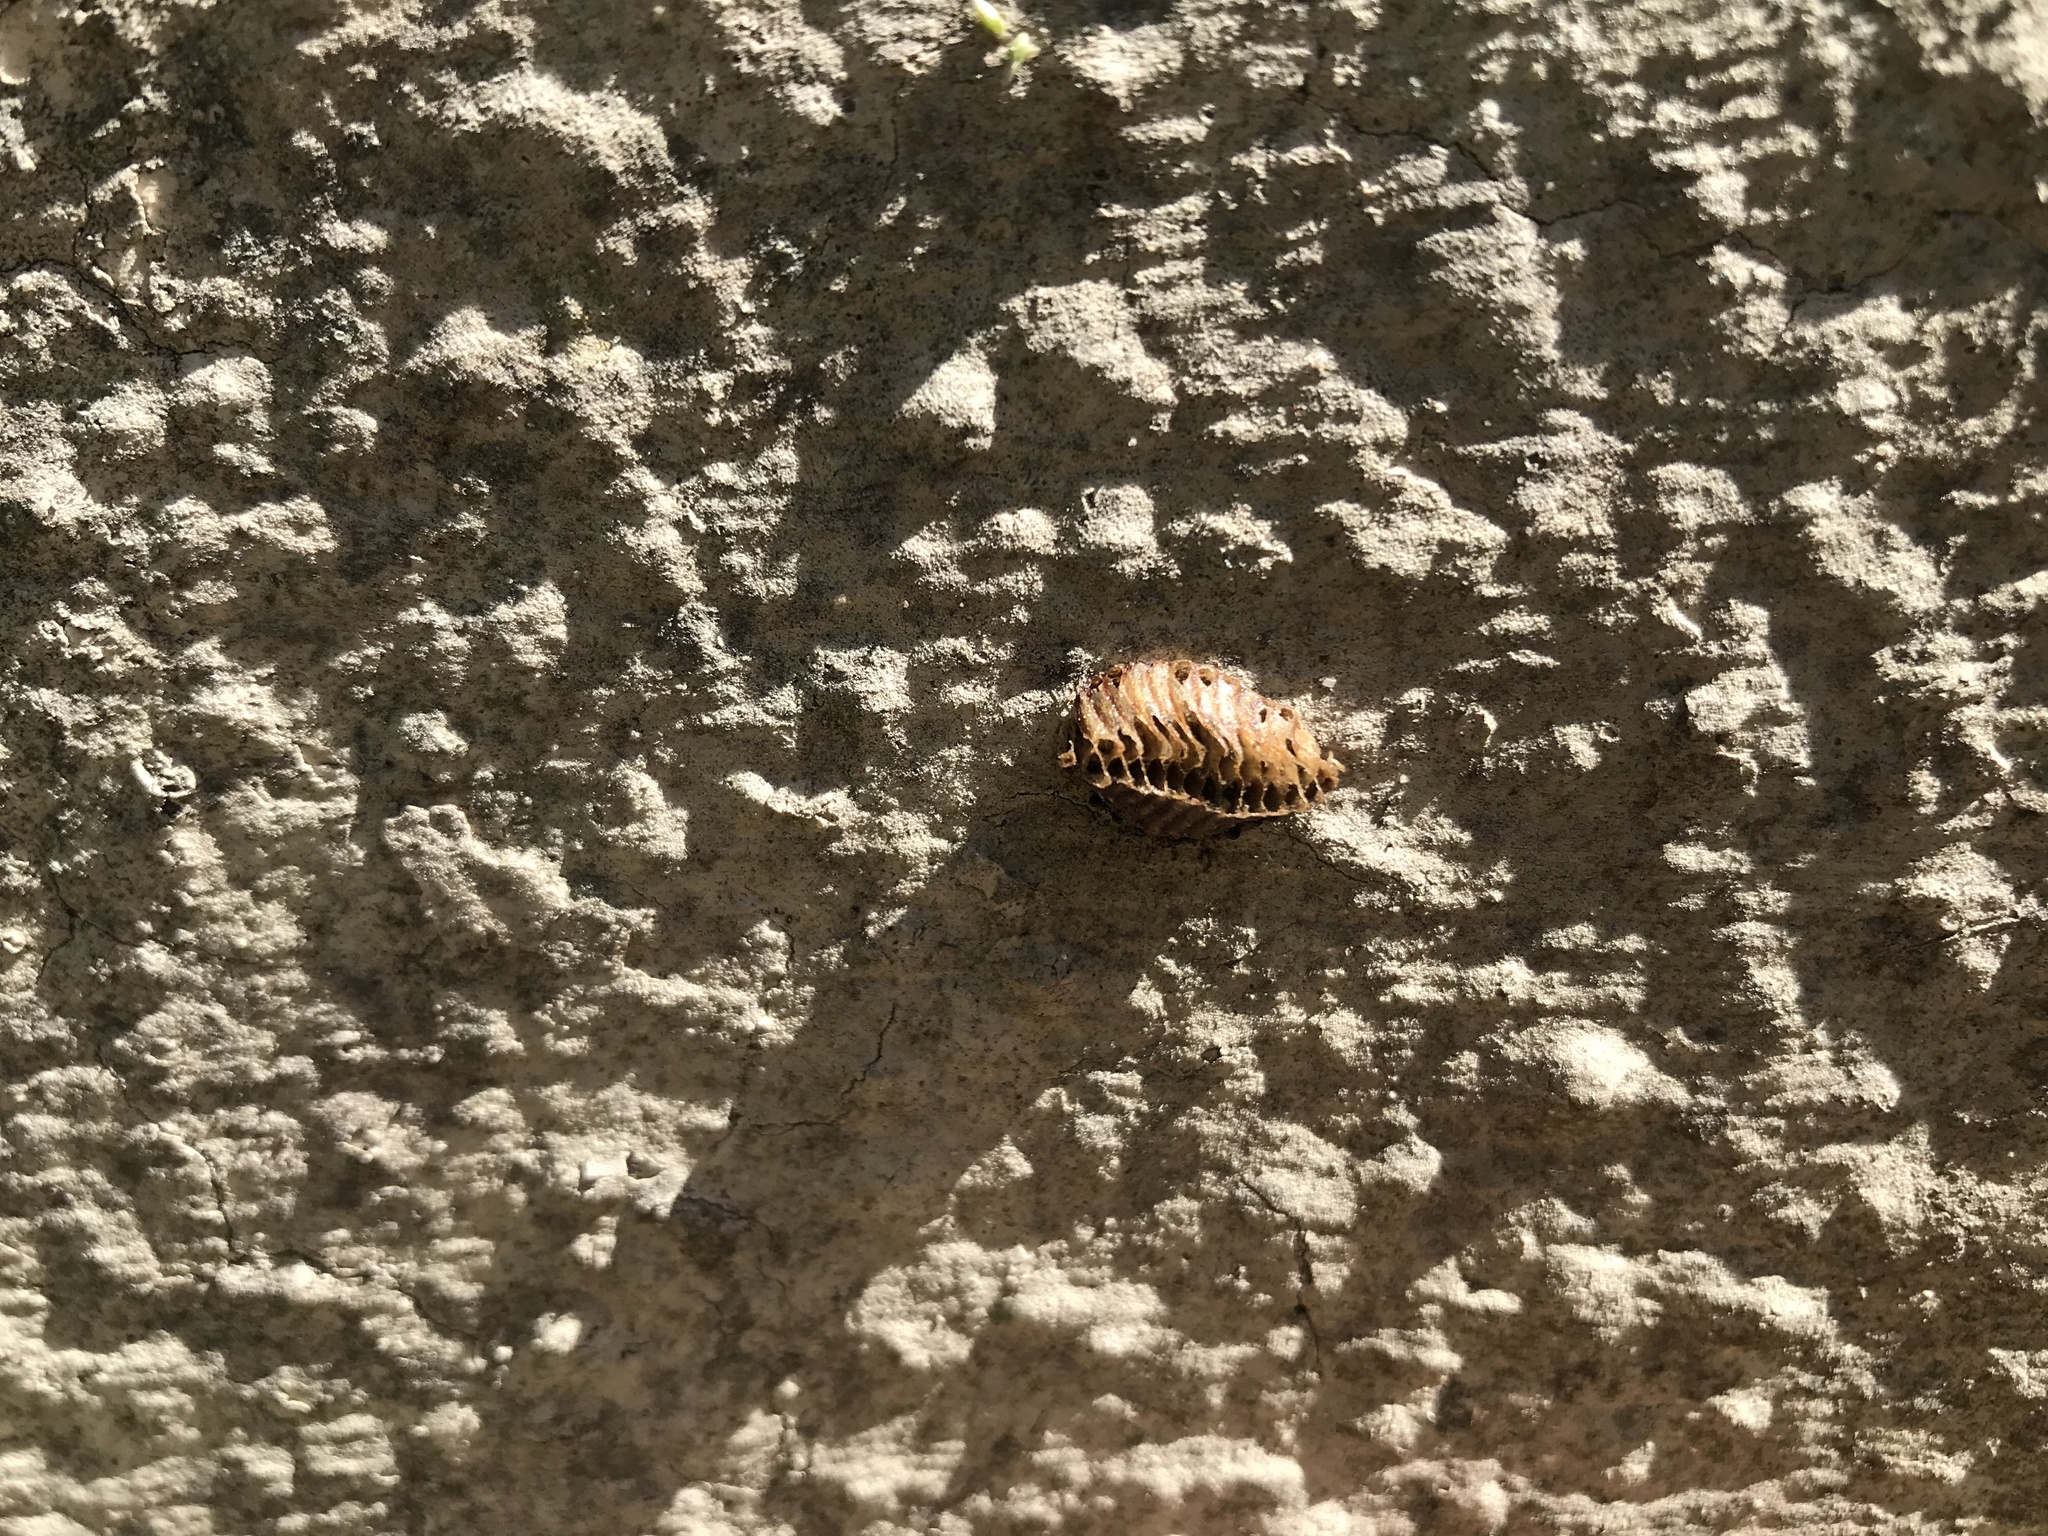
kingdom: Animalia
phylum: Arthropoda
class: Insecta
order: Mantodea
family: Miomantidae
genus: Miomantis
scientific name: Miomantis caffra
